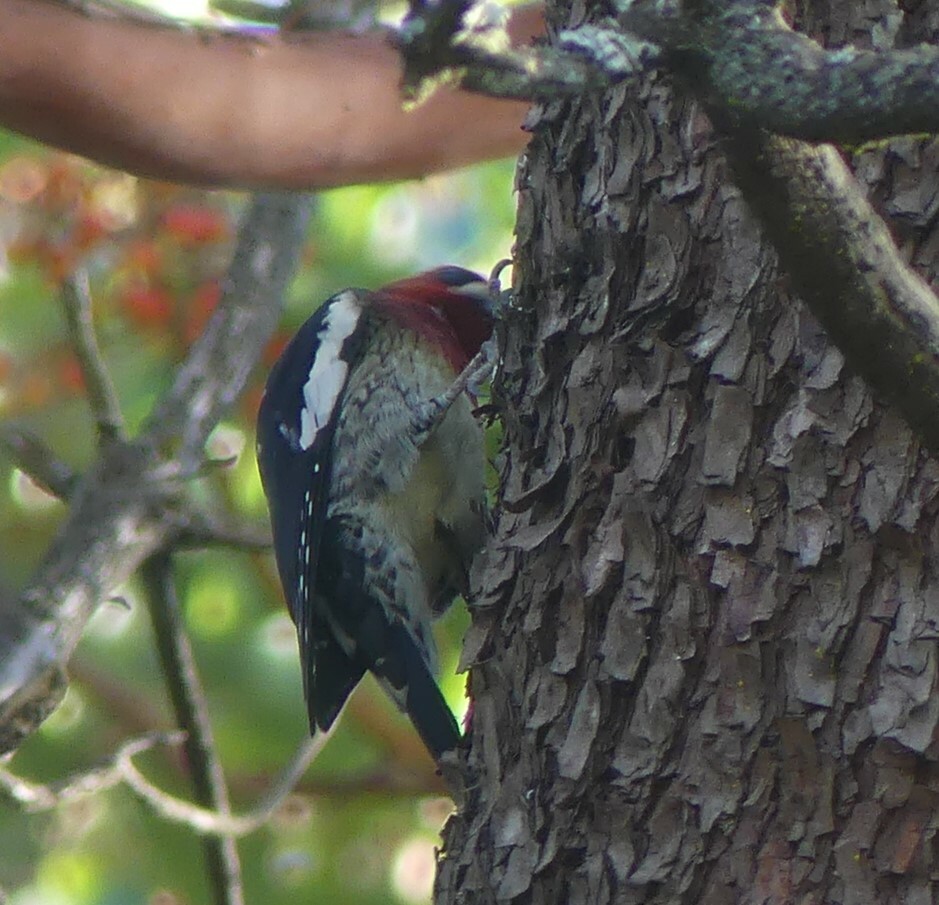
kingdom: Animalia
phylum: Chordata
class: Aves
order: Piciformes
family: Picidae
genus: Sphyrapicus
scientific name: Sphyrapicus ruber
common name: Red-breasted sapsucker
